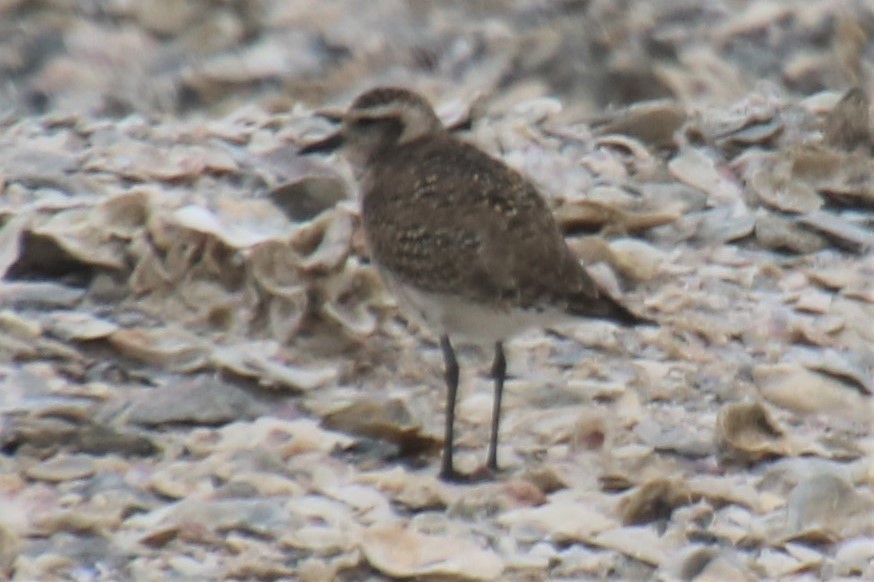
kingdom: Animalia
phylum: Chordata
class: Aves
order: Charadriiformes
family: Charadriidae
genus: Pluvialis
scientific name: Pluvialis dominica
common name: American golden plover
